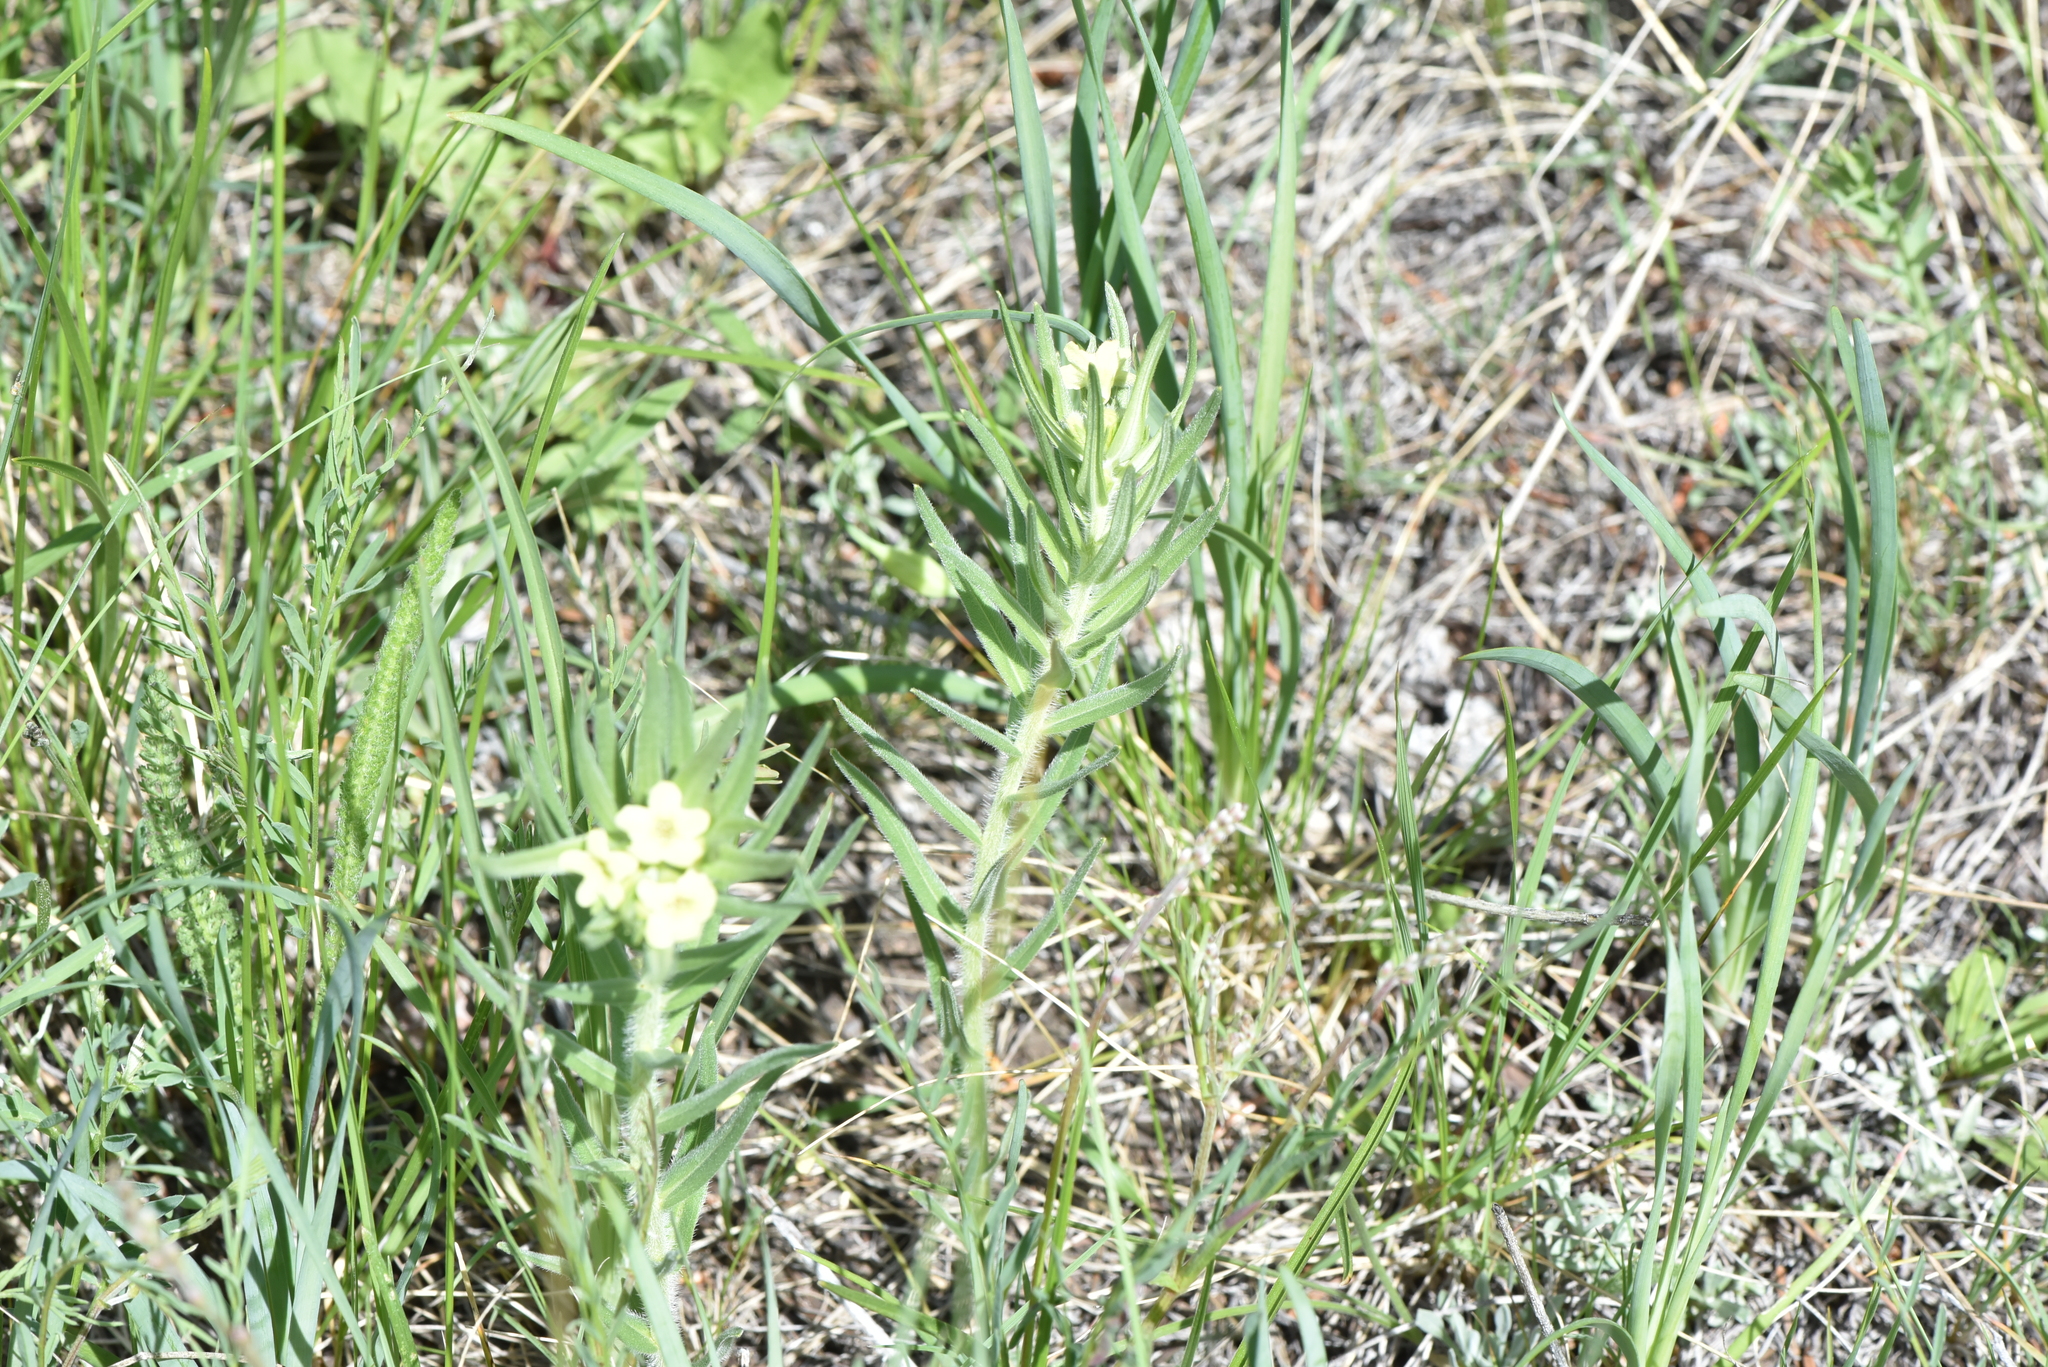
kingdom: Plantae
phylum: Tracheophyta
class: Magnoliopsida
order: Boraginales
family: Boraginaceae
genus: Lithospermum
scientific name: Lithospermum ruderale
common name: Western gromwell
